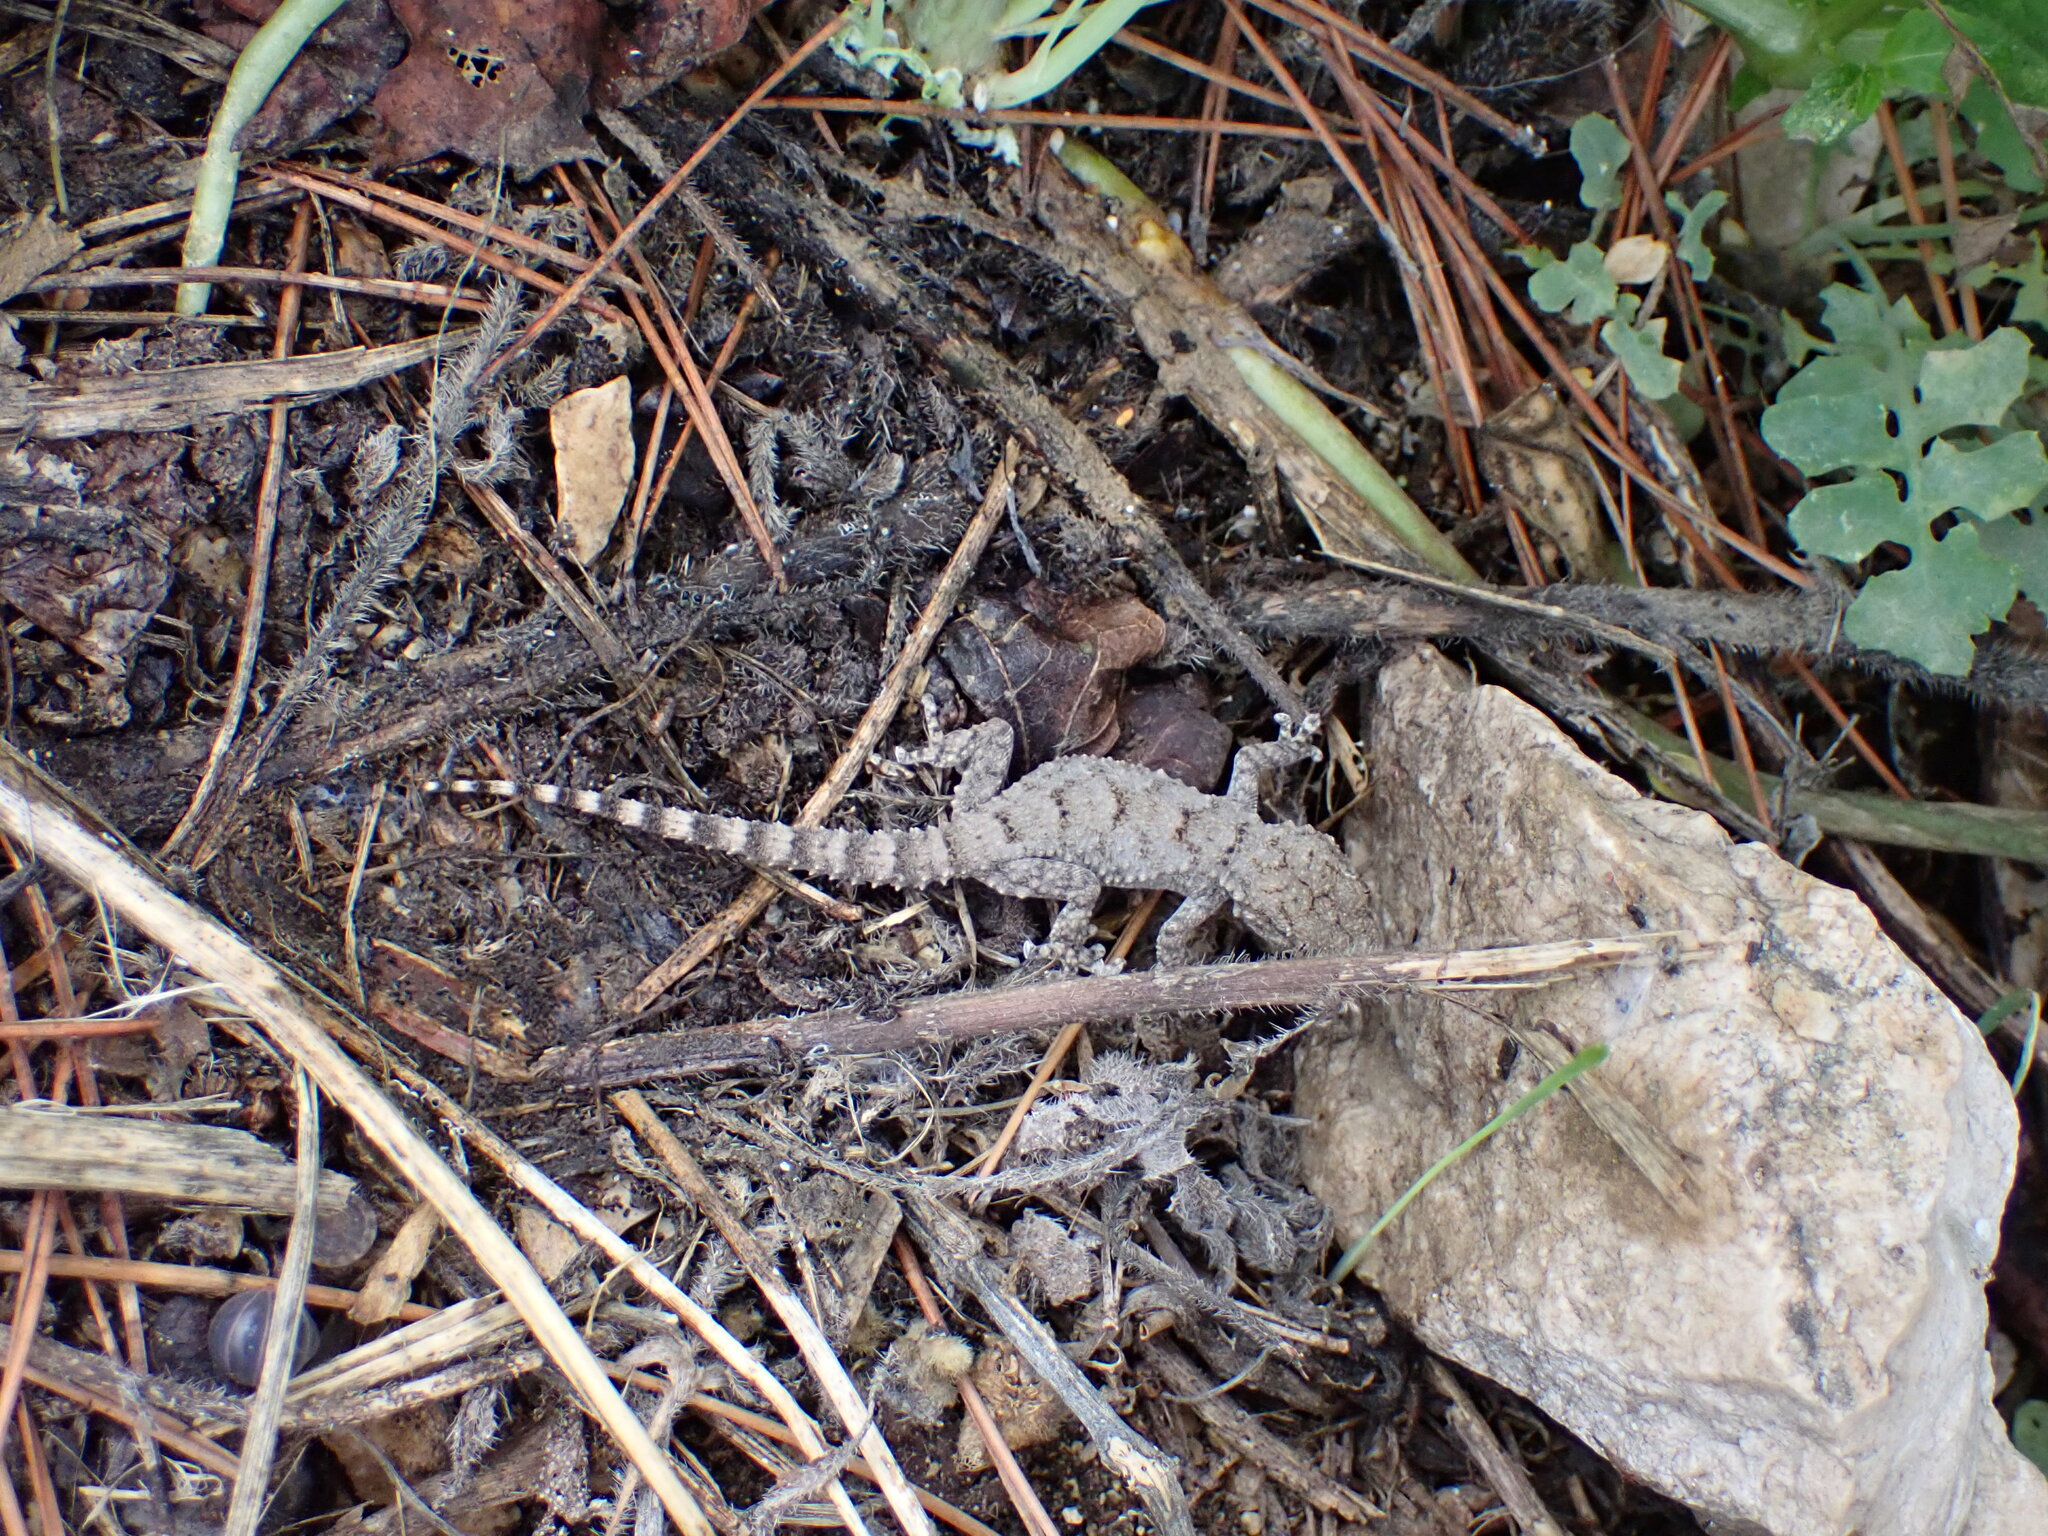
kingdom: Animalia
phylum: Chordata
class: Squamata
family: Phyllodactylidae
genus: Tarentola
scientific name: Tarentola mauritanica
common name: Moorish gecko
